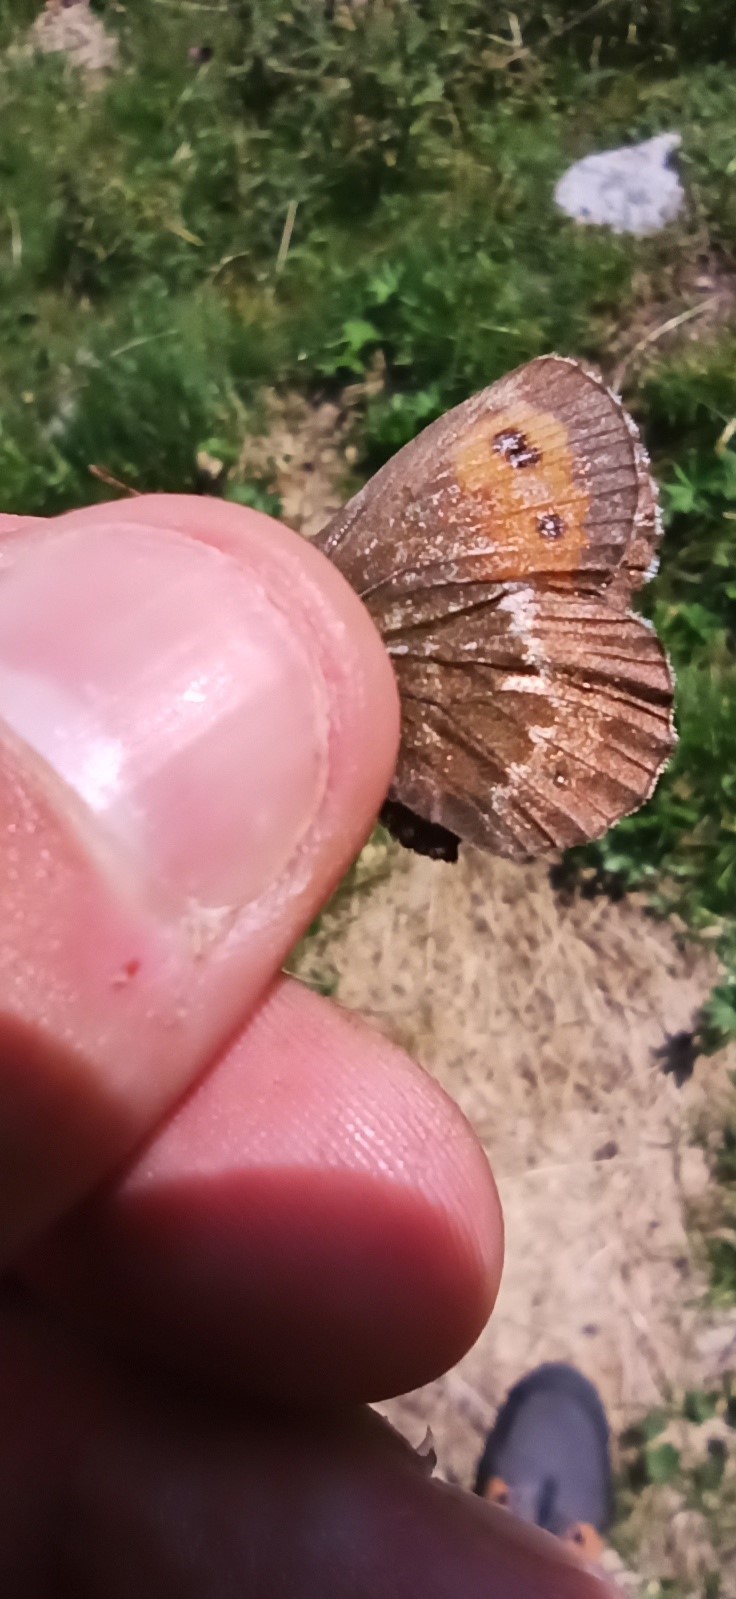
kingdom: Animalia
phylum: Arthropoda
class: Insecta
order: Lepidoptera
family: Nymphalidae
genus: Erebia
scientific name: Erebia euryale
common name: Large ringlet
